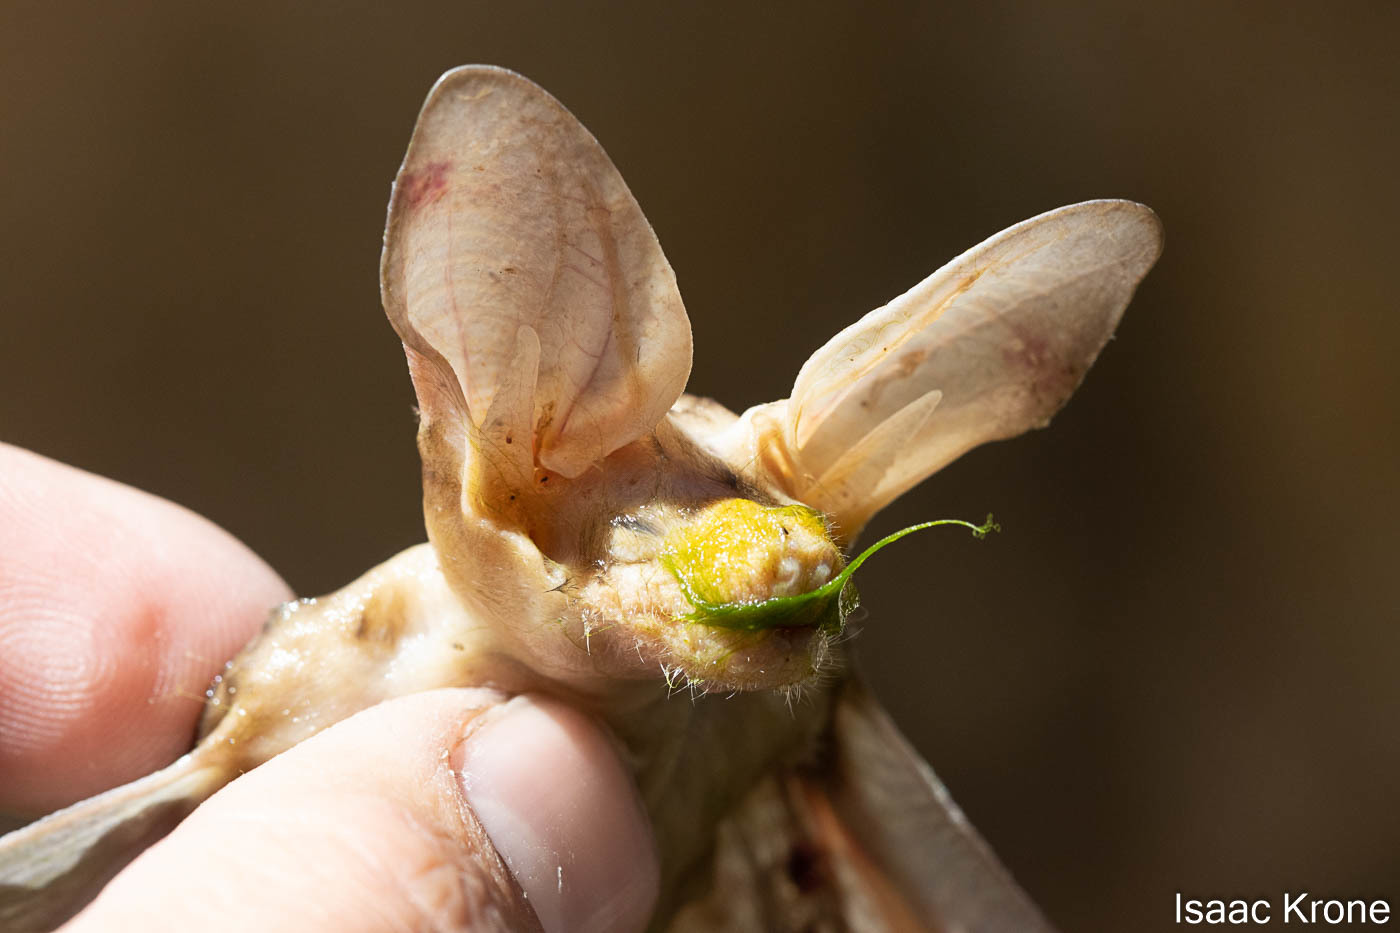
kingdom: Animalia
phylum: Chordata
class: Mammalia
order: Chiroptera
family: Vespertilionidae
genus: Antrozous
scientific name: Antrozous pallidus
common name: Pallid bat
